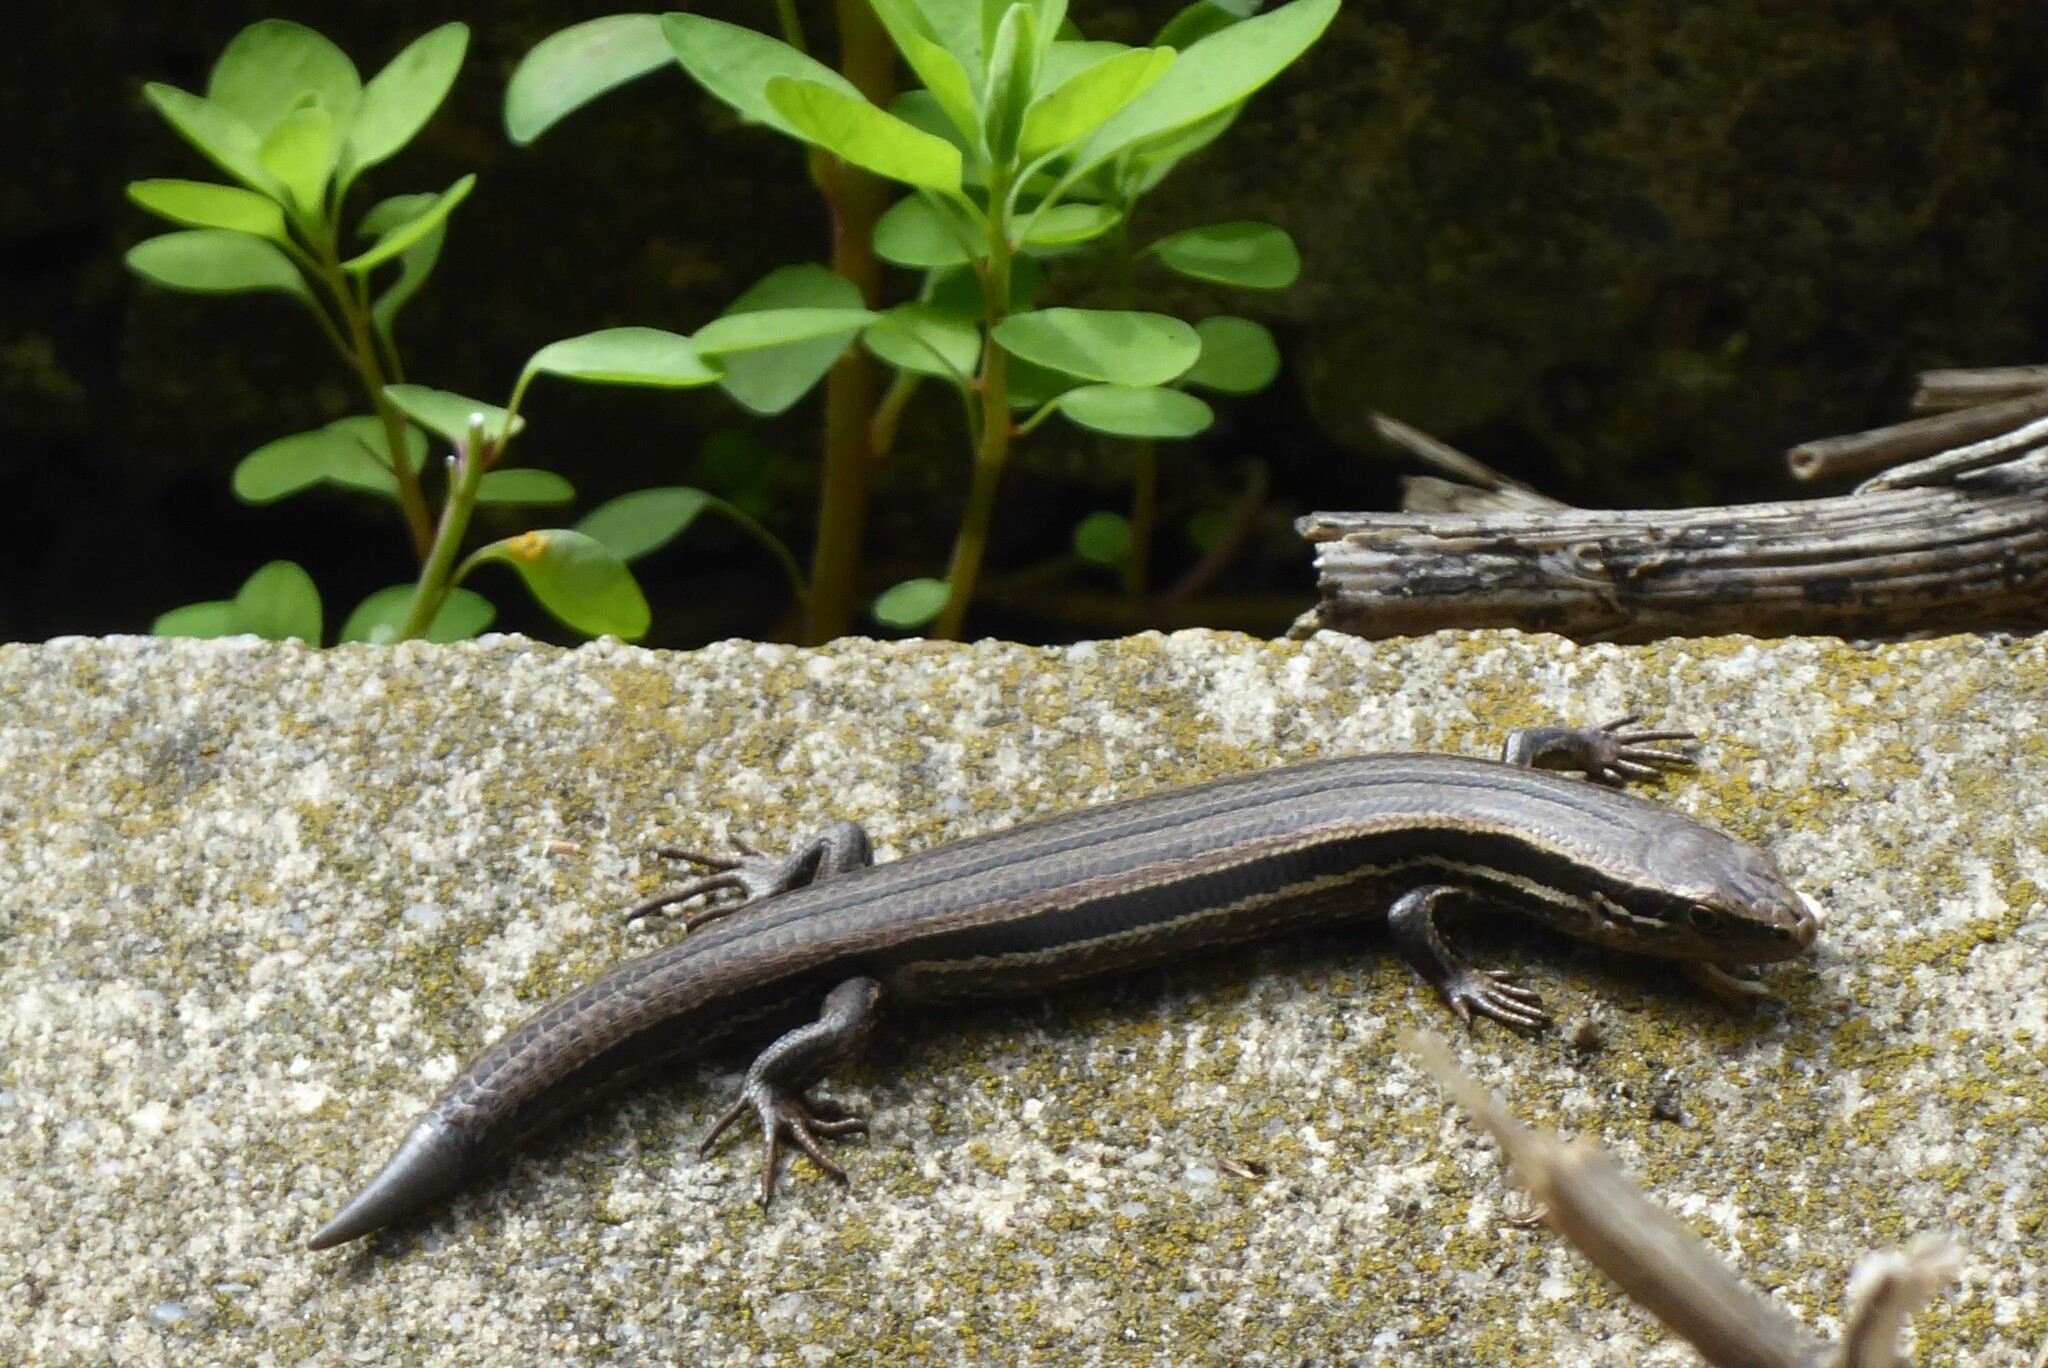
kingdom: Animalia
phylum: Chordata
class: Squamata
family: Scincidae
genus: Oligosoma
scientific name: Oligosoma polychroma
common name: Common new zealand skink
